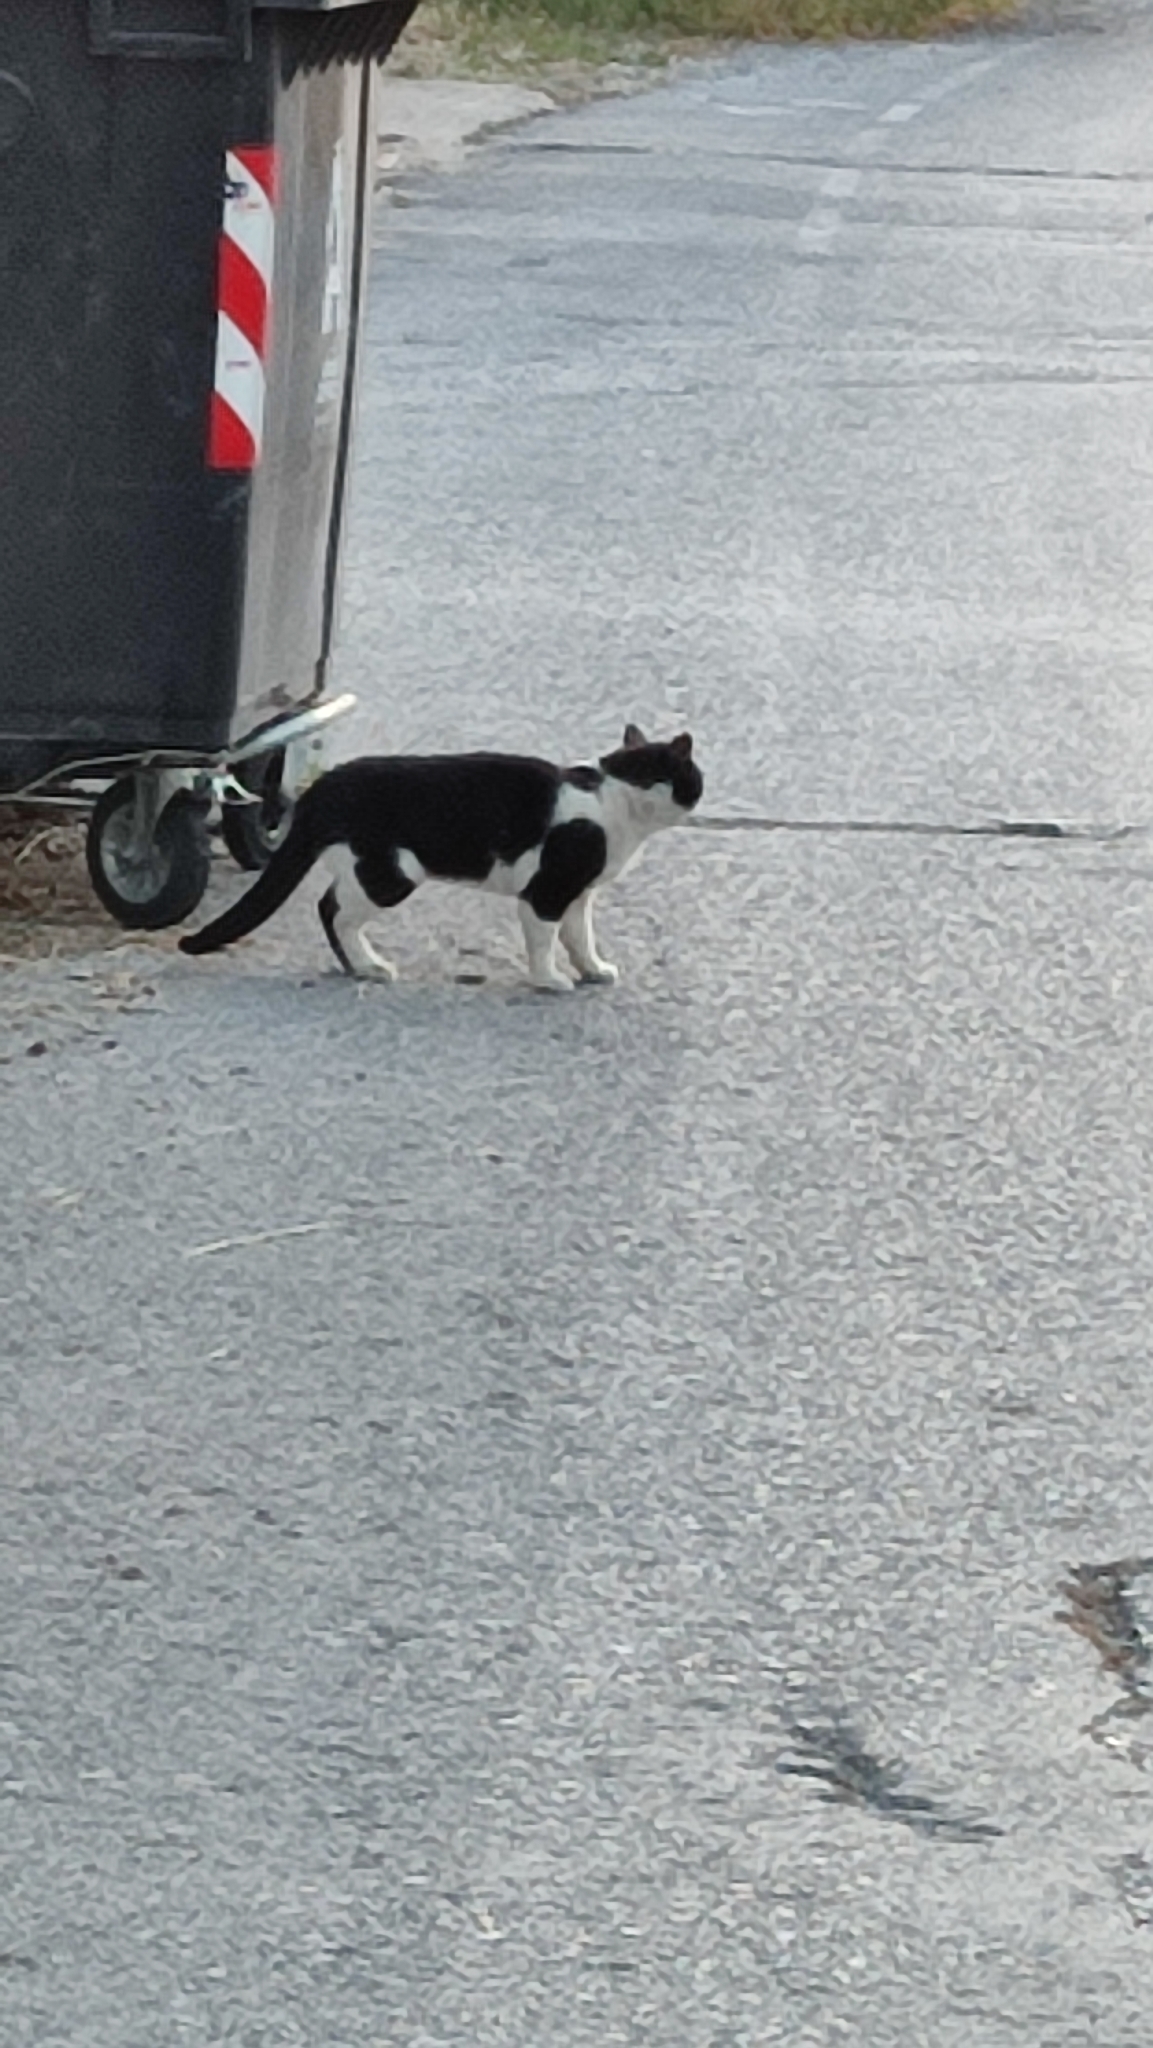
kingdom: Animalia
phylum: Chordata
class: Mammalia
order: Carnivora
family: Felidae
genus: Felis
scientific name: Felis catus
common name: Domestic cat
